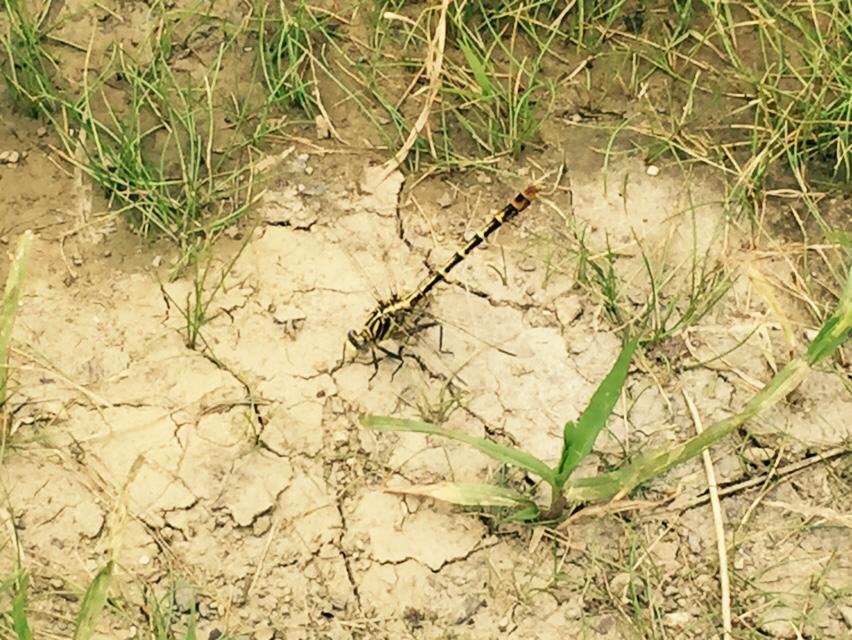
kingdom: Animalia
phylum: Arthropoda
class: Insecta
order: Odonata
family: Gomphidae
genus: Dromogomphus
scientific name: Dromogomphus spoliatus
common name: Flag-tailed spinyleg
